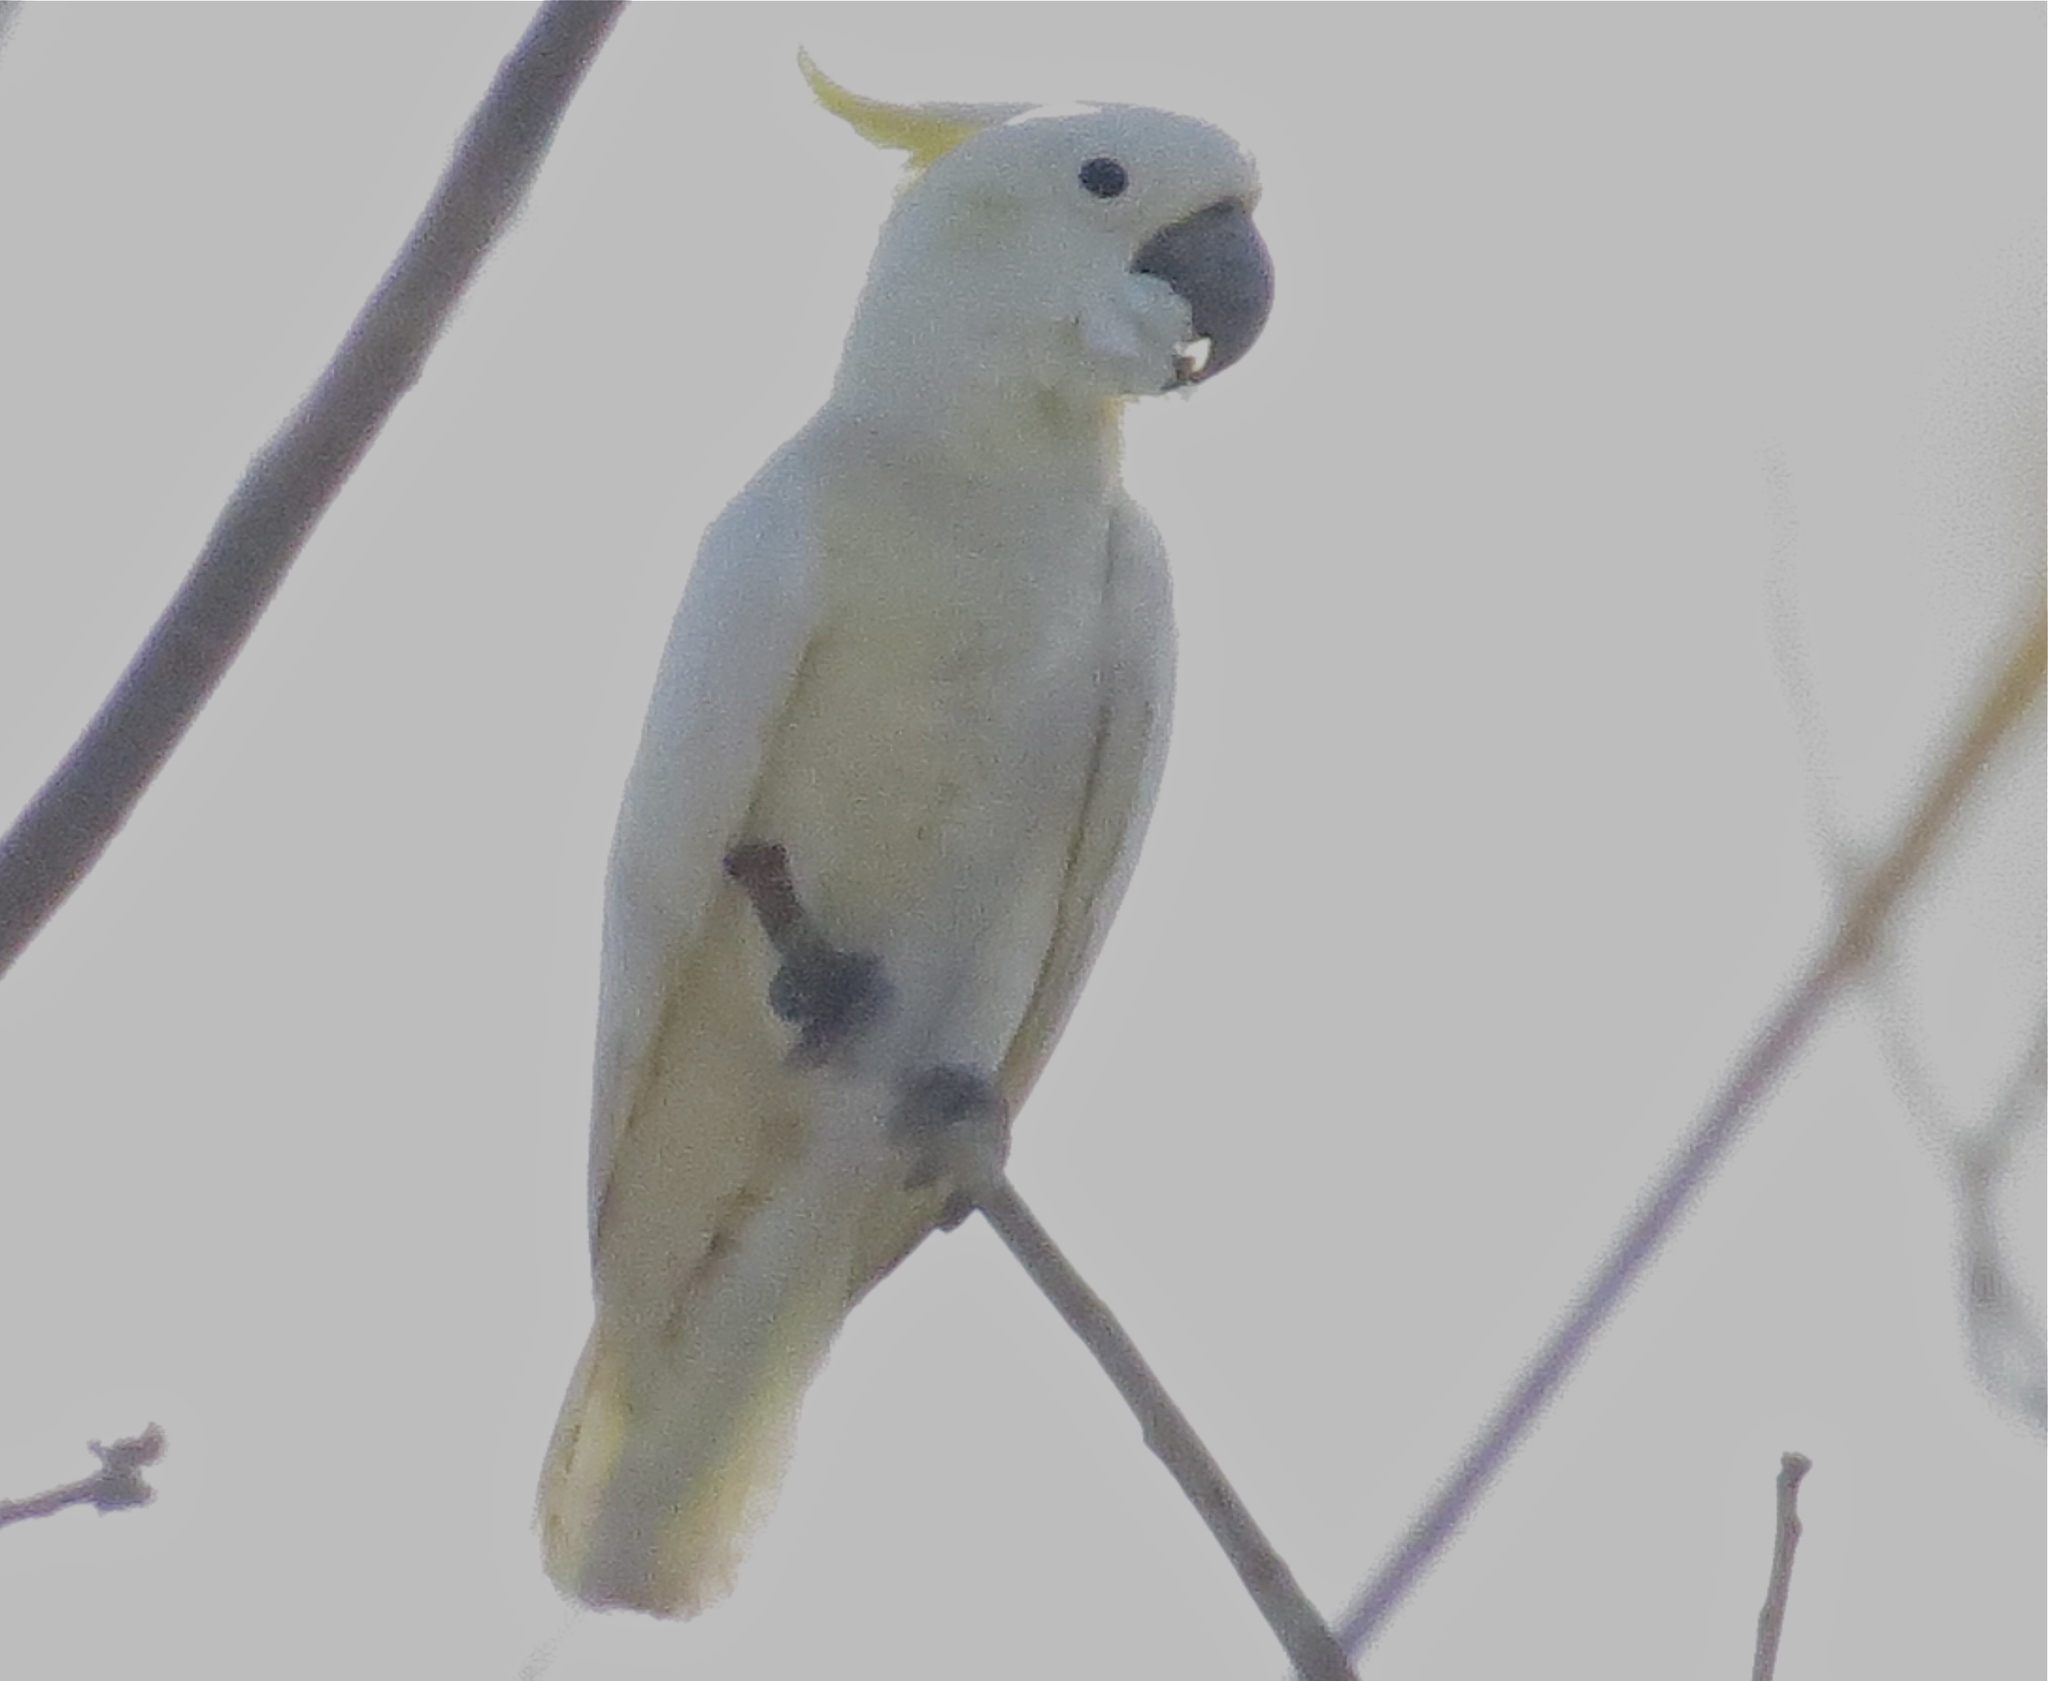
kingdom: Animalia
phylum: Chordata
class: Aves
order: Psittaciformes
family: Psittacidae
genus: Cacatua
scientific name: Cacatua sulphurea
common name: Yellow-crested cockatoo
